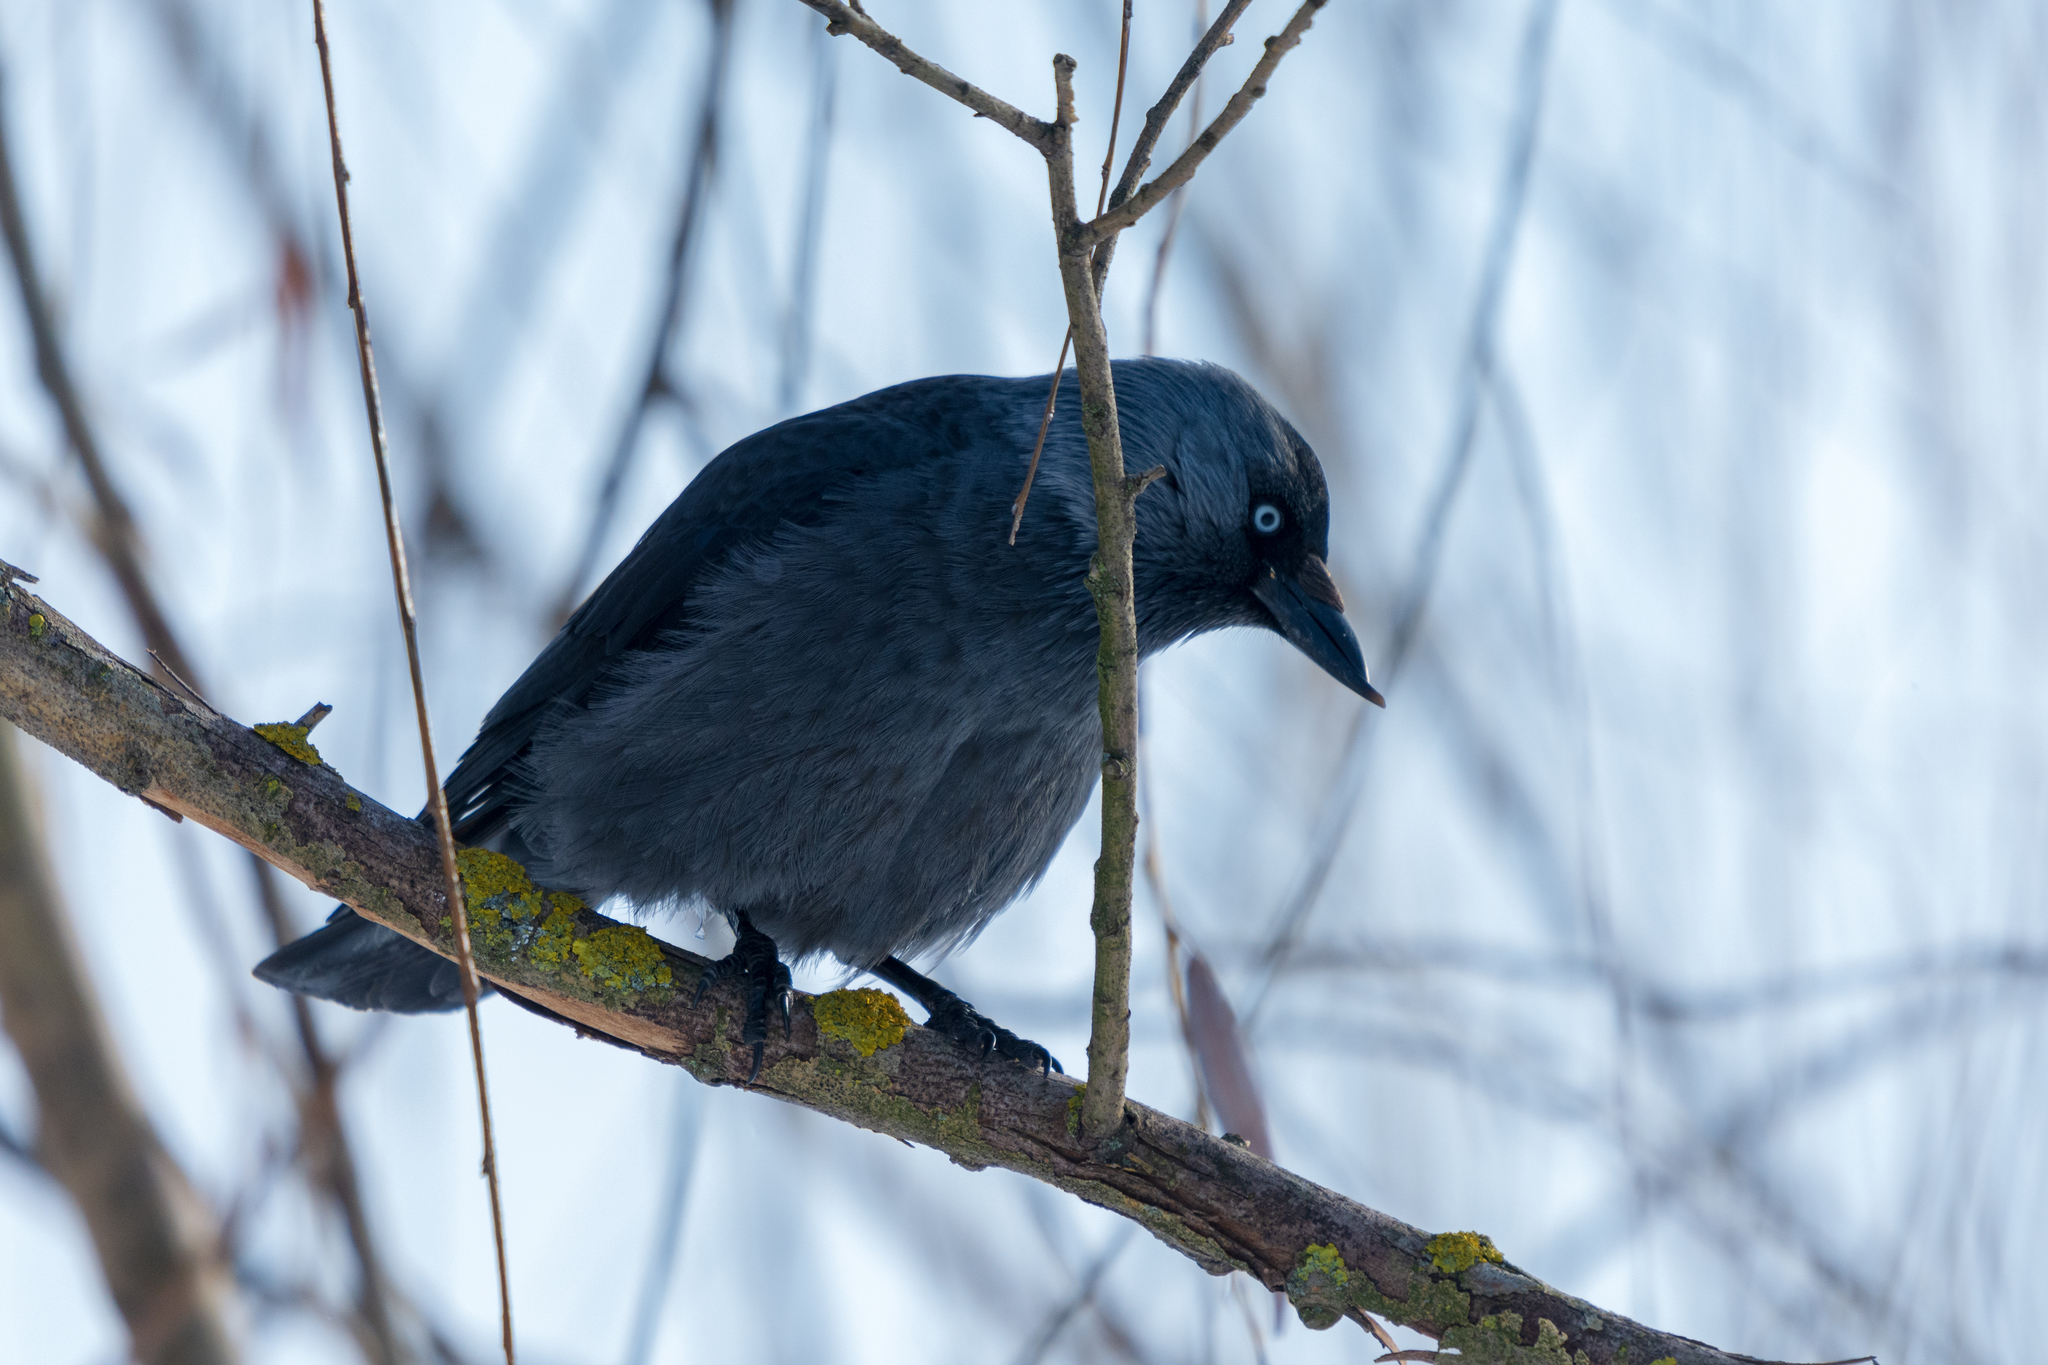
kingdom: Animalia
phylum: Chordata
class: Aves
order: Passeriformes
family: Corvidae
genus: Coloeus
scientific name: Coloeus monedula
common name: Western jackdaw
